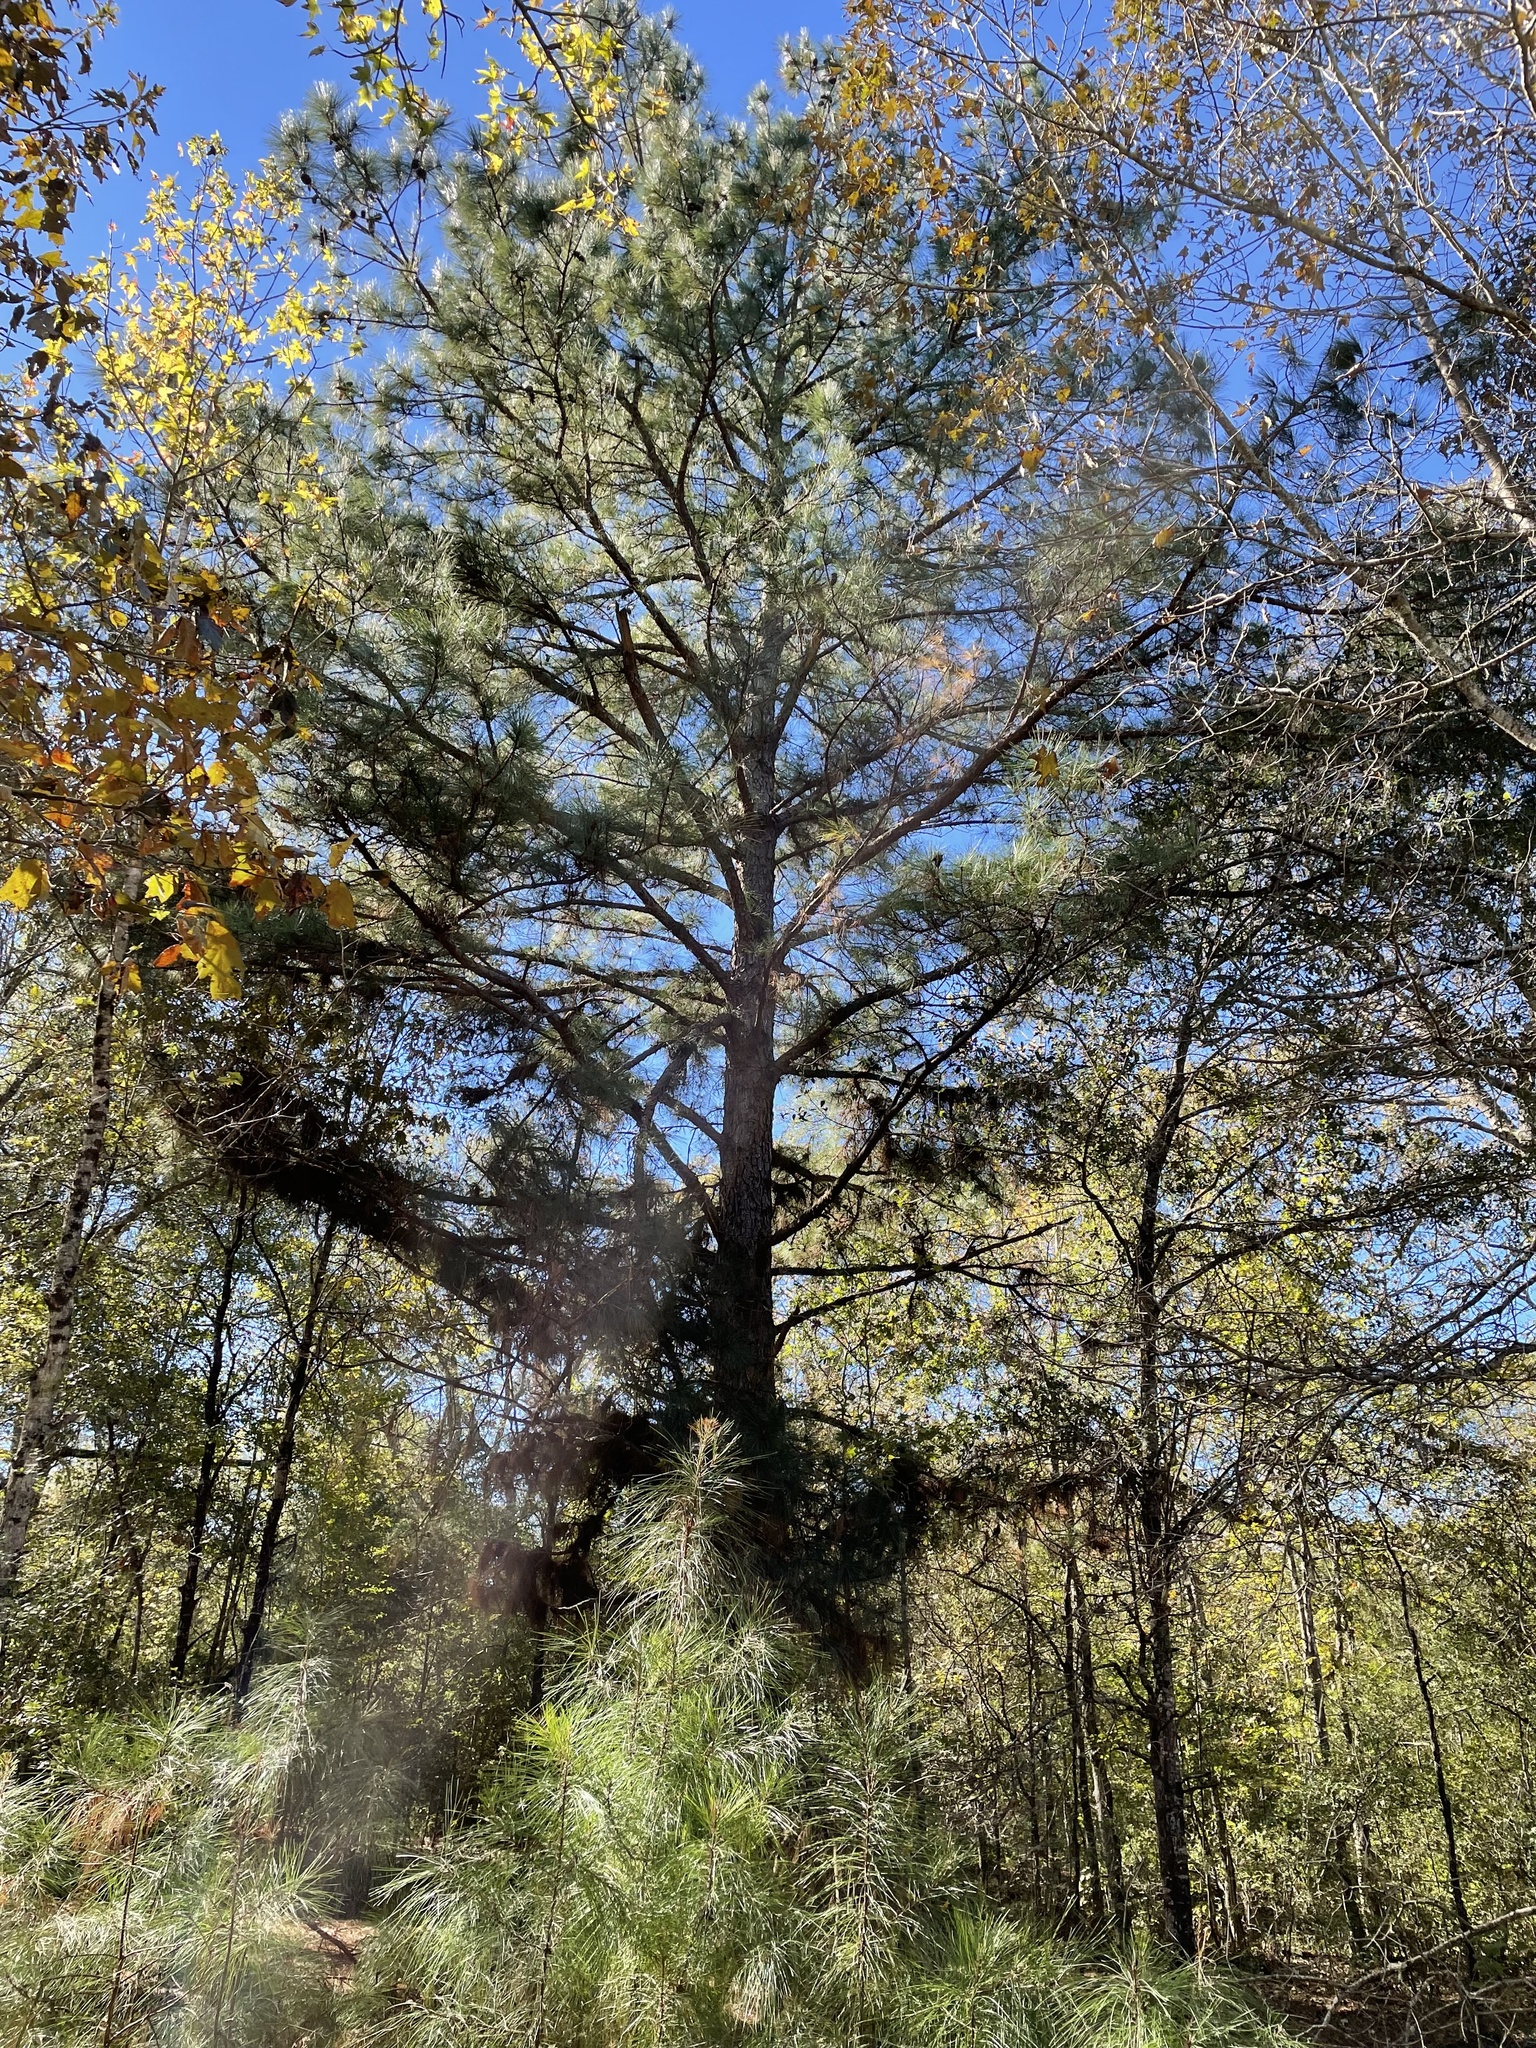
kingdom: Plantae
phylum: Tracheophyta
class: Pinopsida
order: Pinales
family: Pinaceae
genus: Pinus
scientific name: Pinus taeda
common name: Loblolly pine
